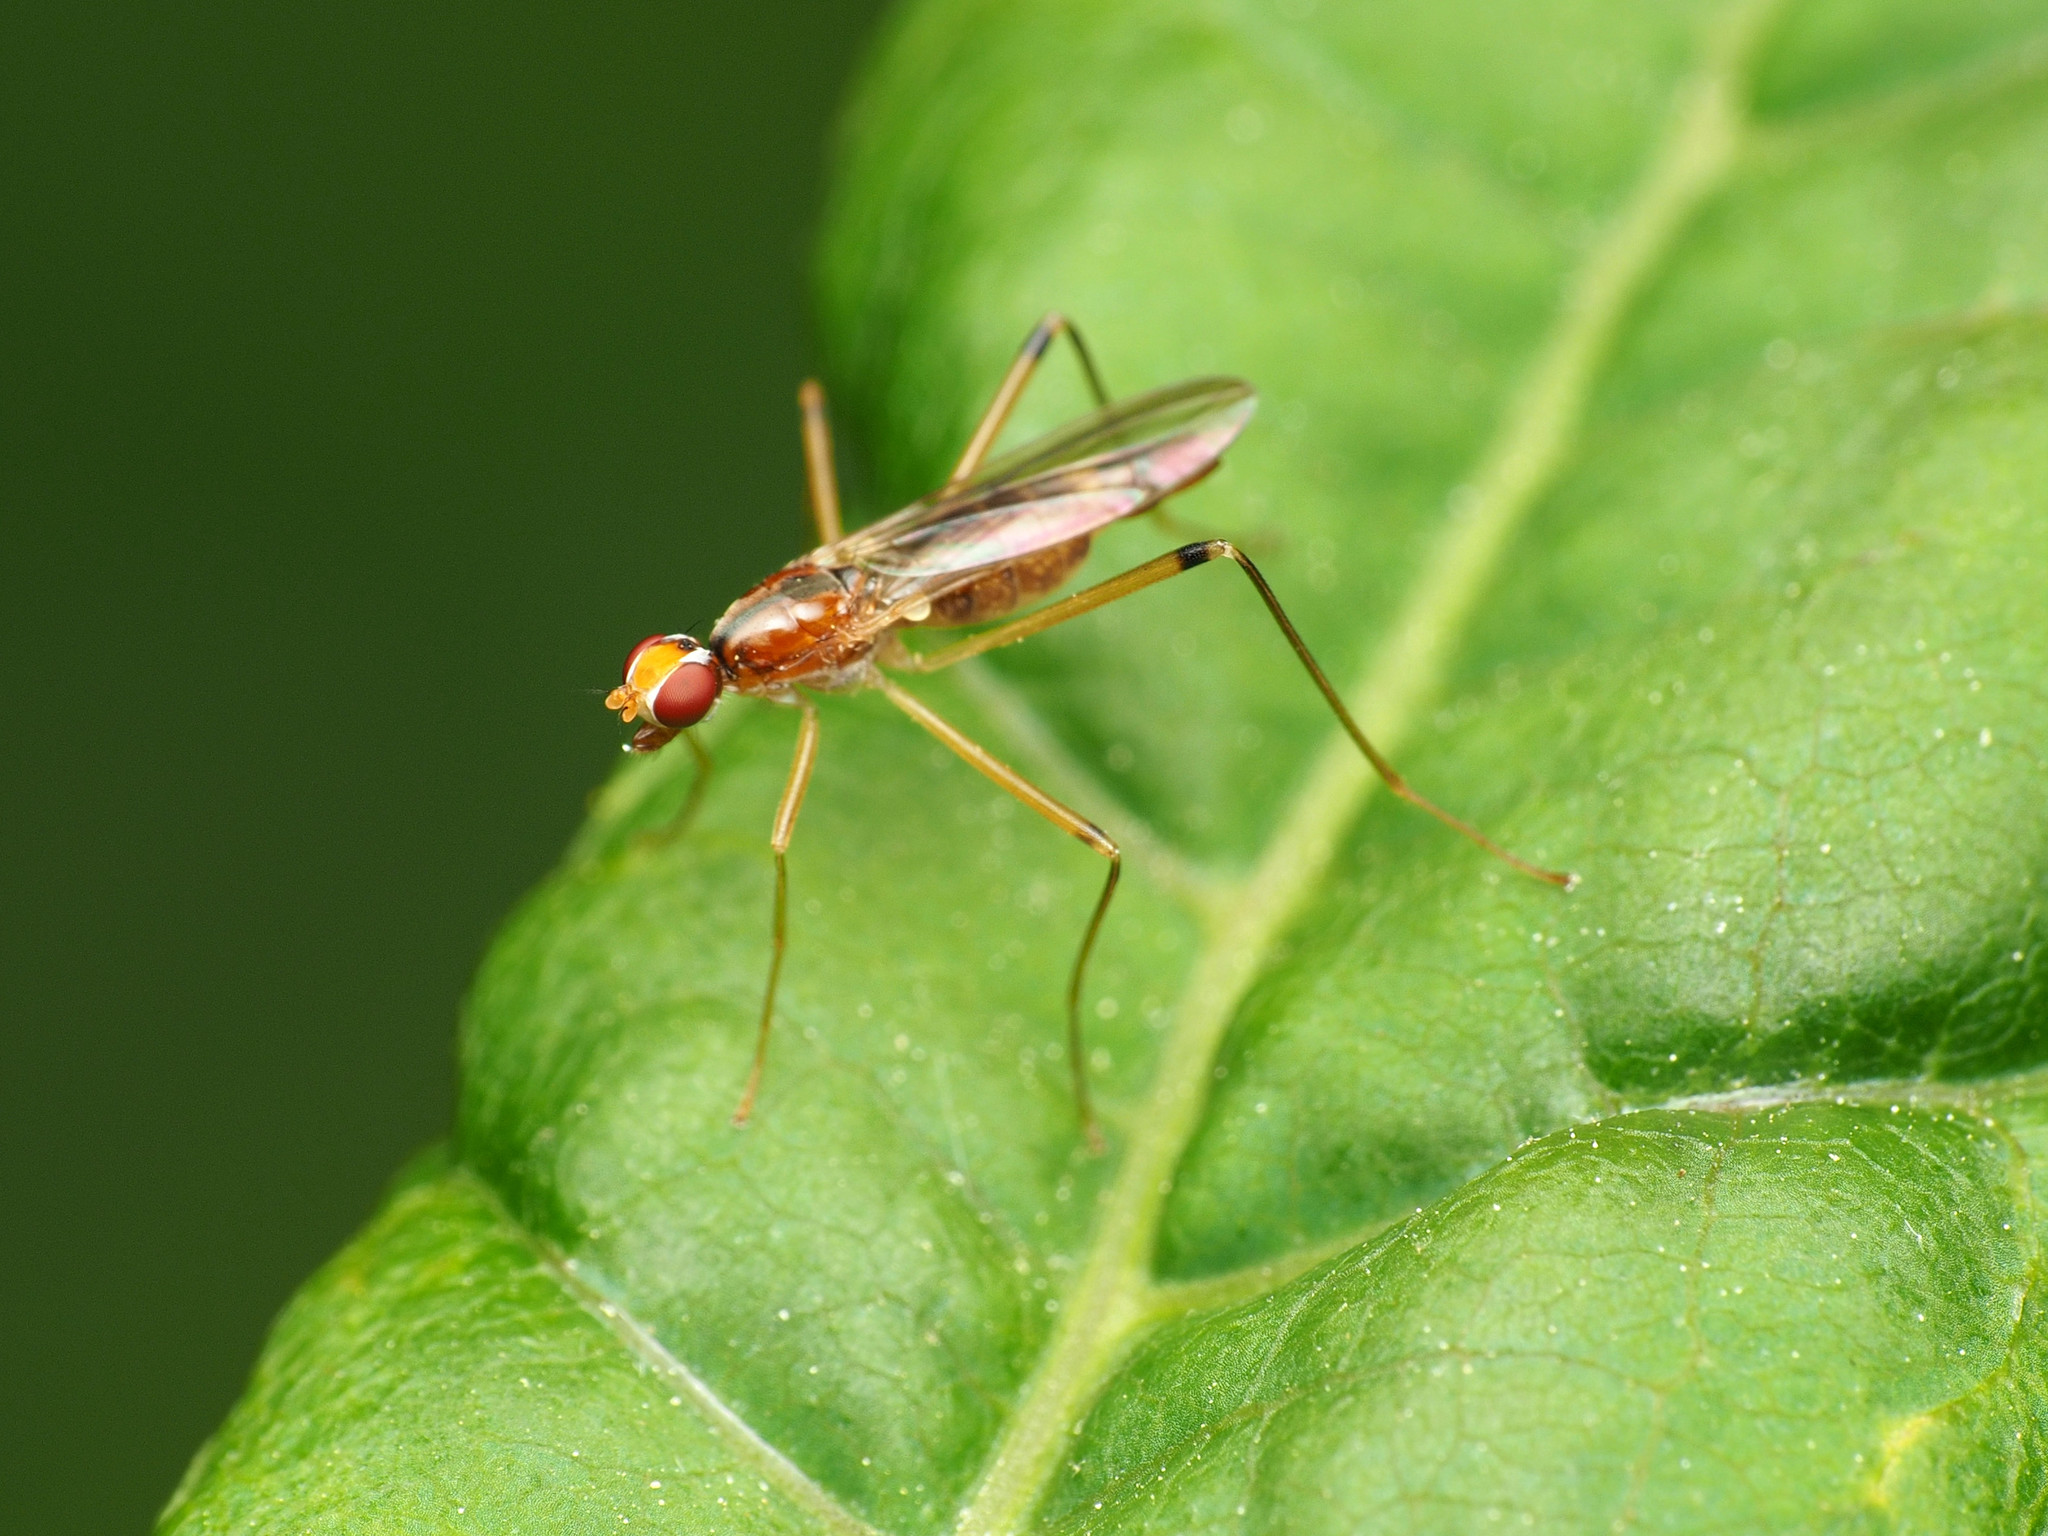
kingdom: Animalia
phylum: Arthropoda
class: Insecta
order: Diptera
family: Micropezidae
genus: Compsobata
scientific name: Compsobata univitta
